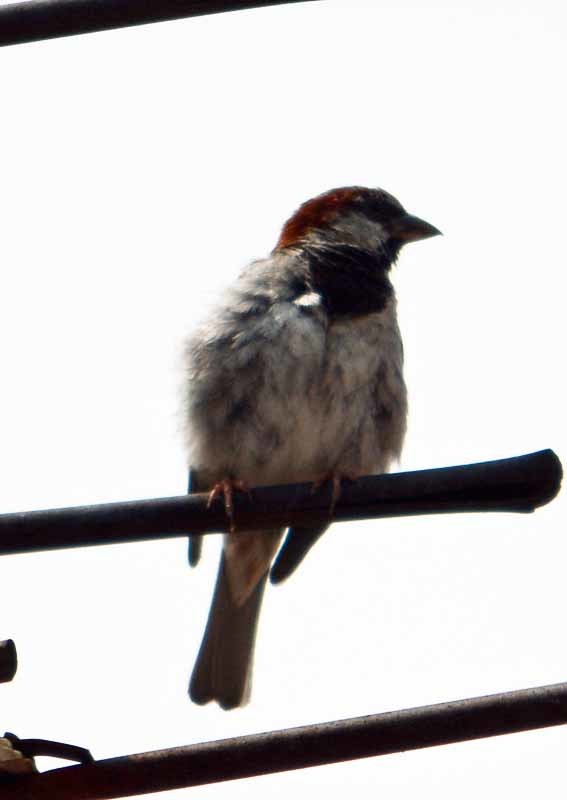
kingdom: Animalia
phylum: Chordata
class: Aves
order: Passeriformes
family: Passeridae
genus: Passer
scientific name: Passer domesticus
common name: House sparrow
